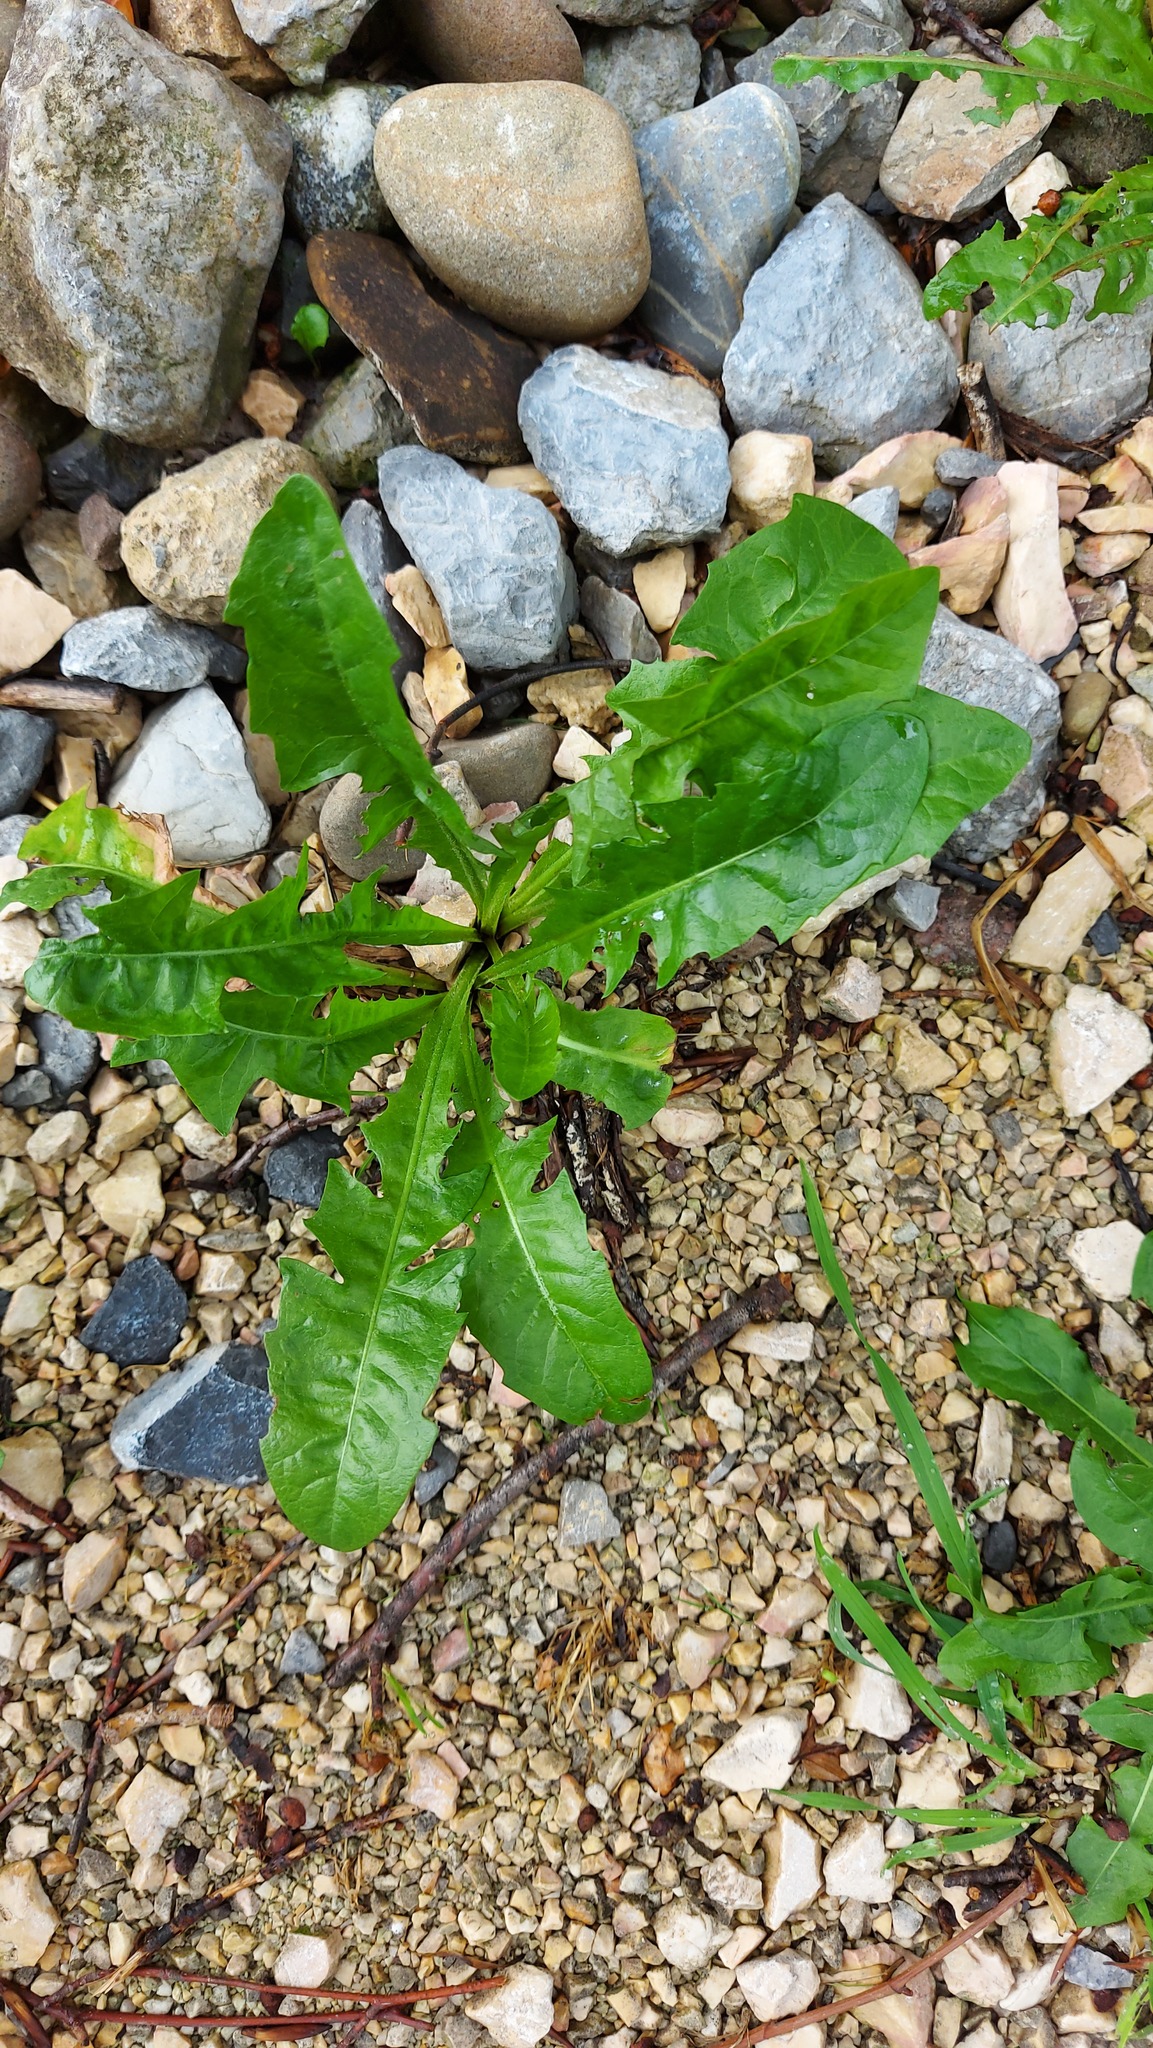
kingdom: Plantae
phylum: Tracheophyta
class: Magnoliopsida
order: Asterales
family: Asteraceae
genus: Taraxacum
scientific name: Taraxacum officinale
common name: Common dandelion
